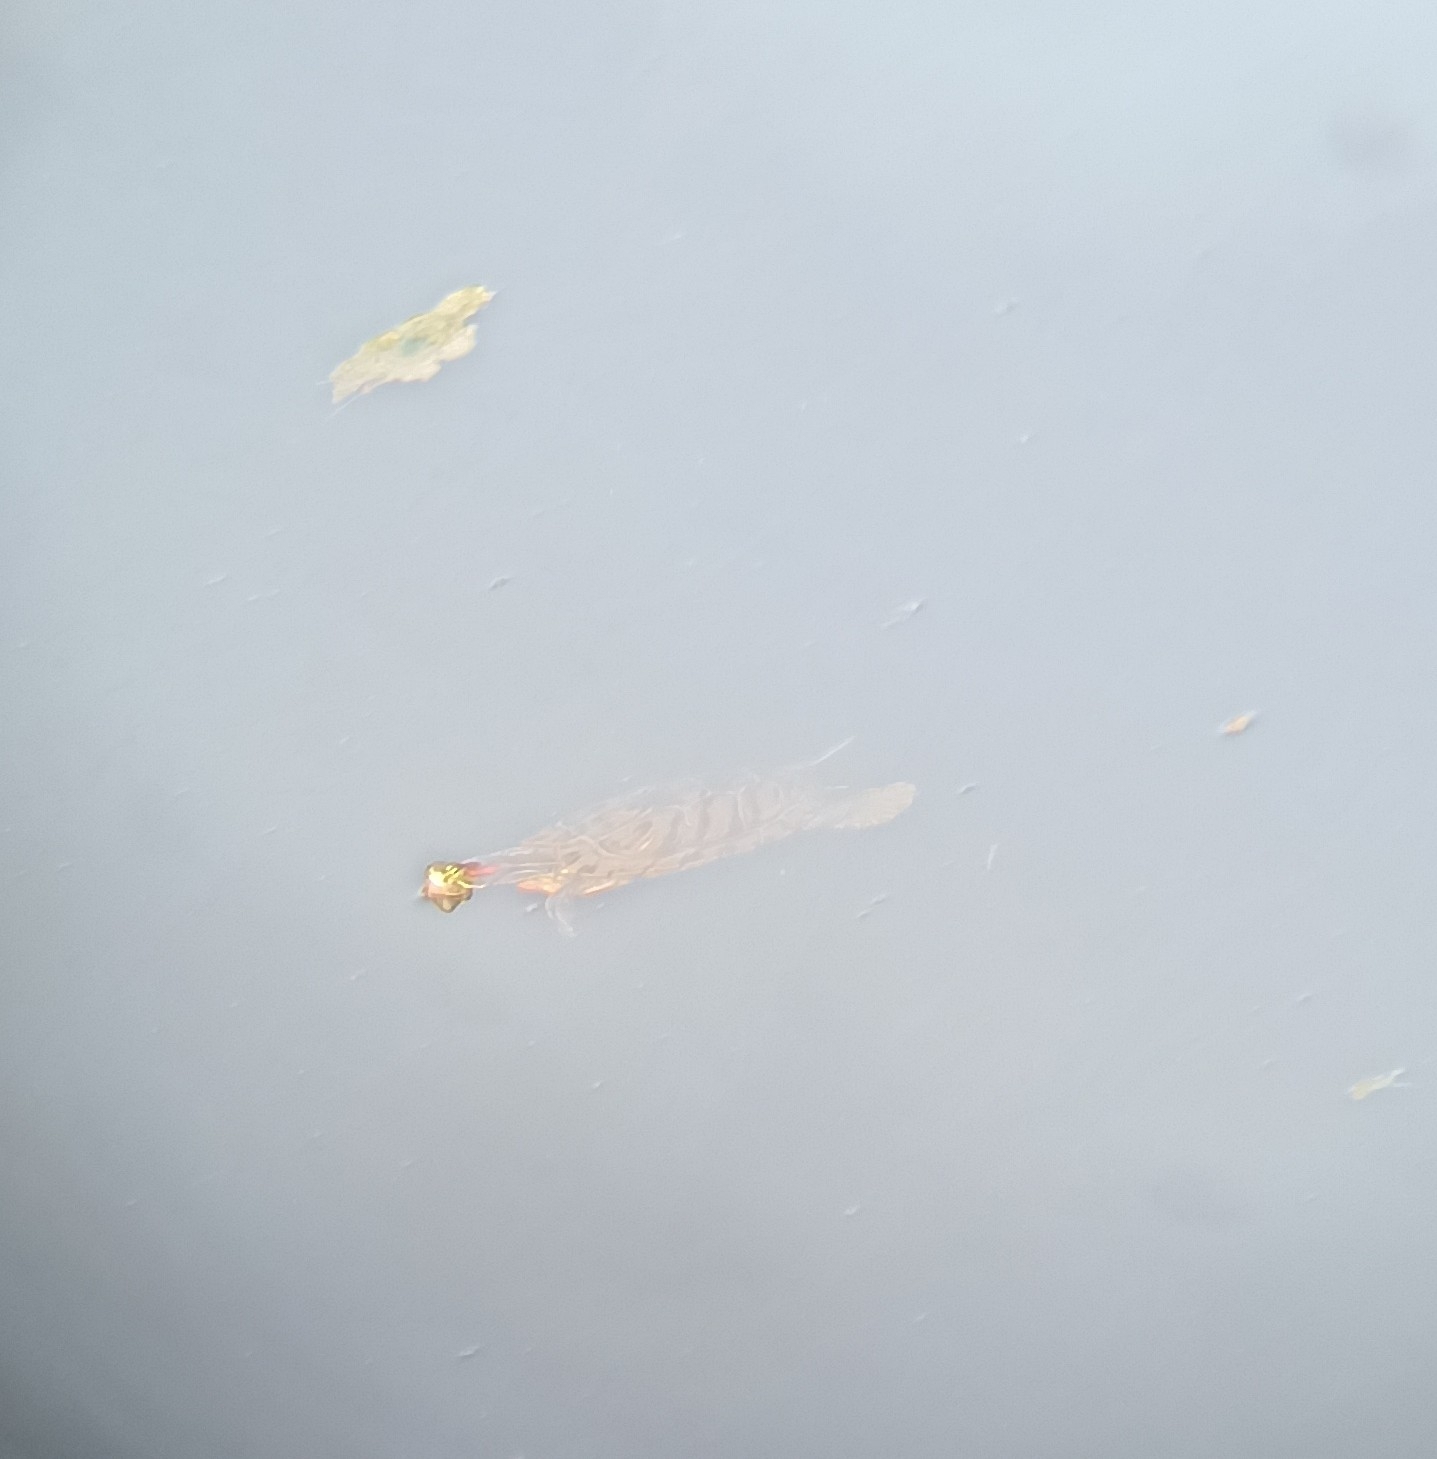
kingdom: Animalia
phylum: Chordata
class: Testudines
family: Emydidae
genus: Trachemys
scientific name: Trachemys scripta
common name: Slider
